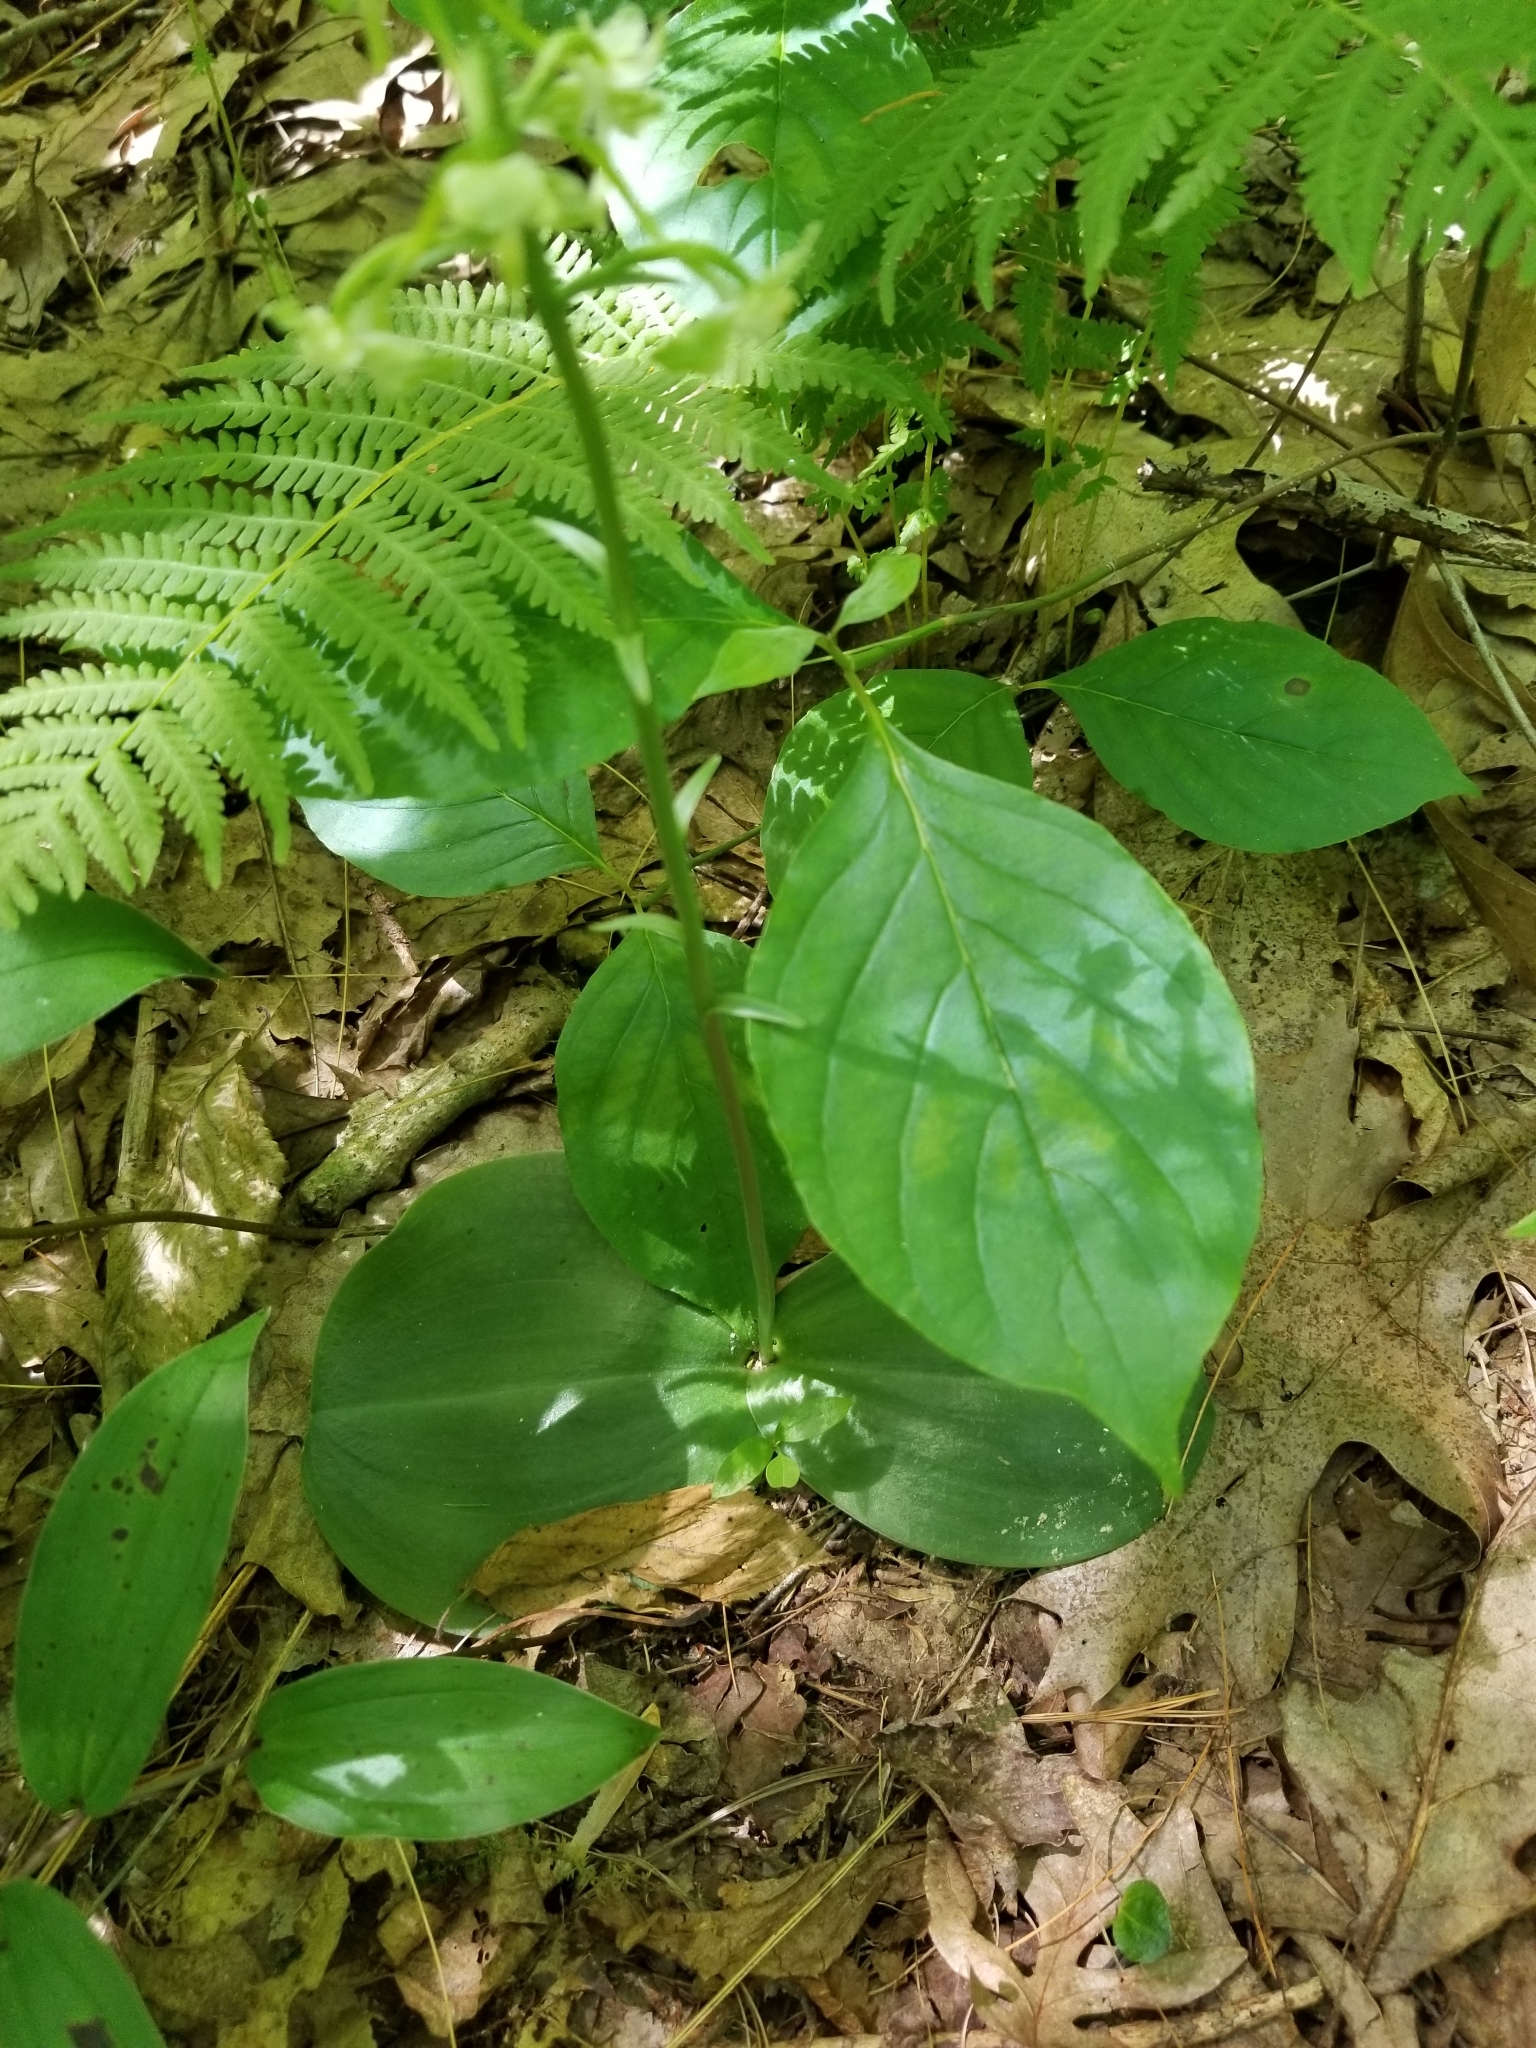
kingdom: Plantae
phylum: Tracheophyta
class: Liliopsida
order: Asparagales
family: Orchidaceae
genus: Platanthera
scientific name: Platanthera orbiculata
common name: Large round-leaved orchid
